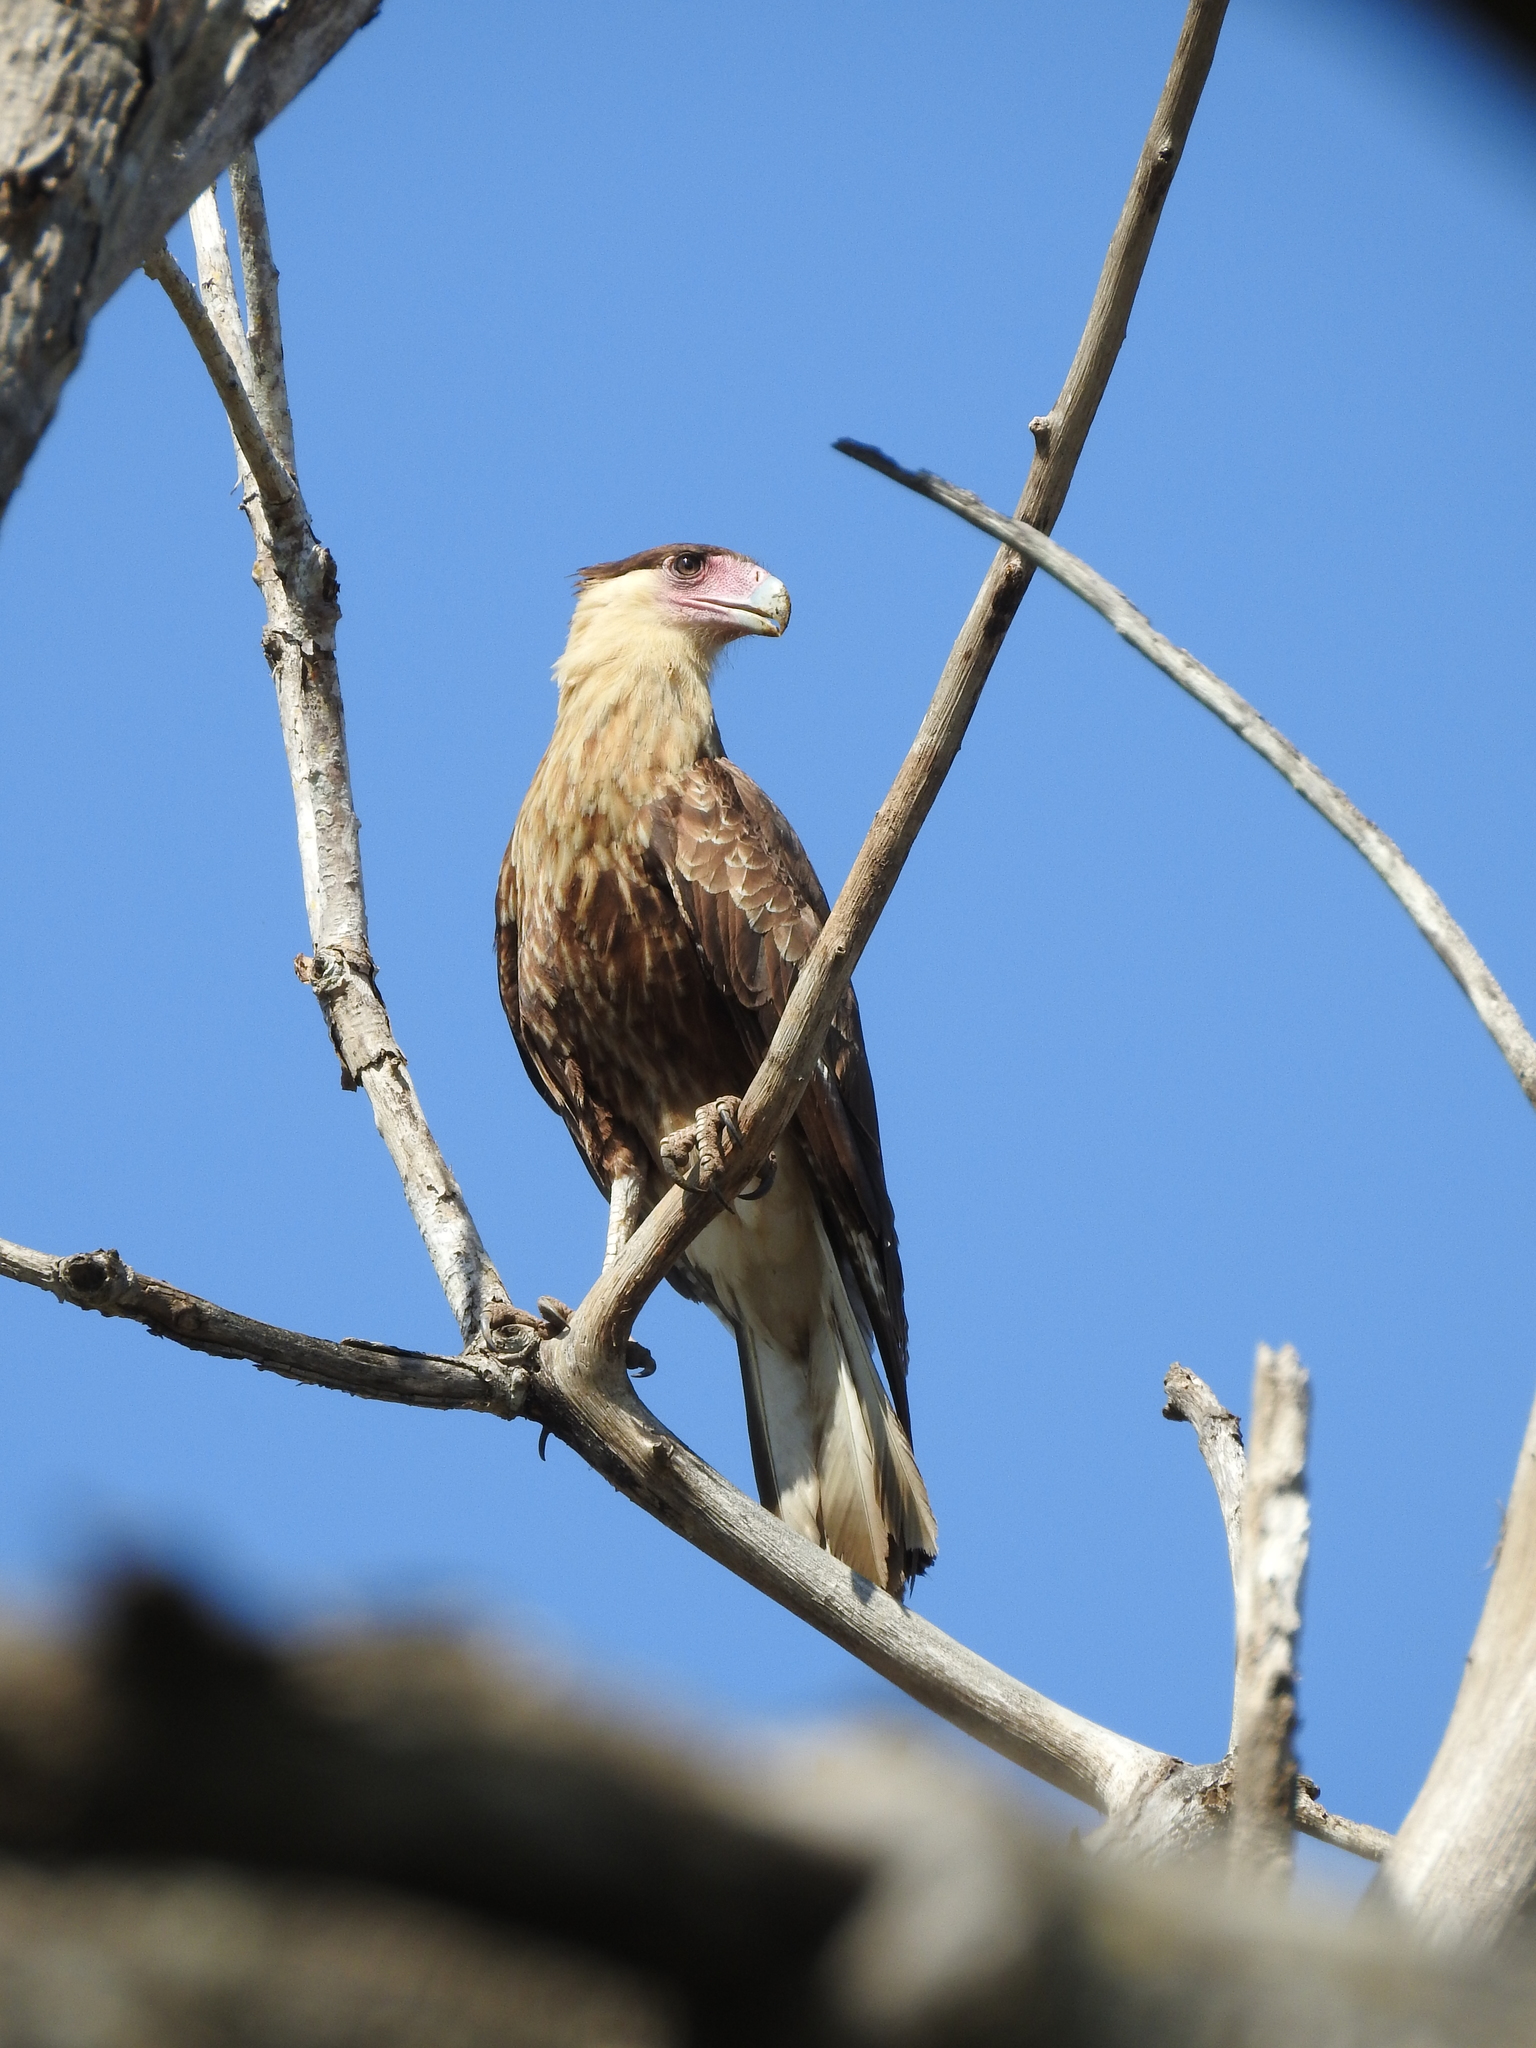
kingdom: Animalia
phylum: Chordata
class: Aves
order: Falconiformes
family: Falconidae
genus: Caracara
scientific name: Caracara plancus
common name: Southern caracara
